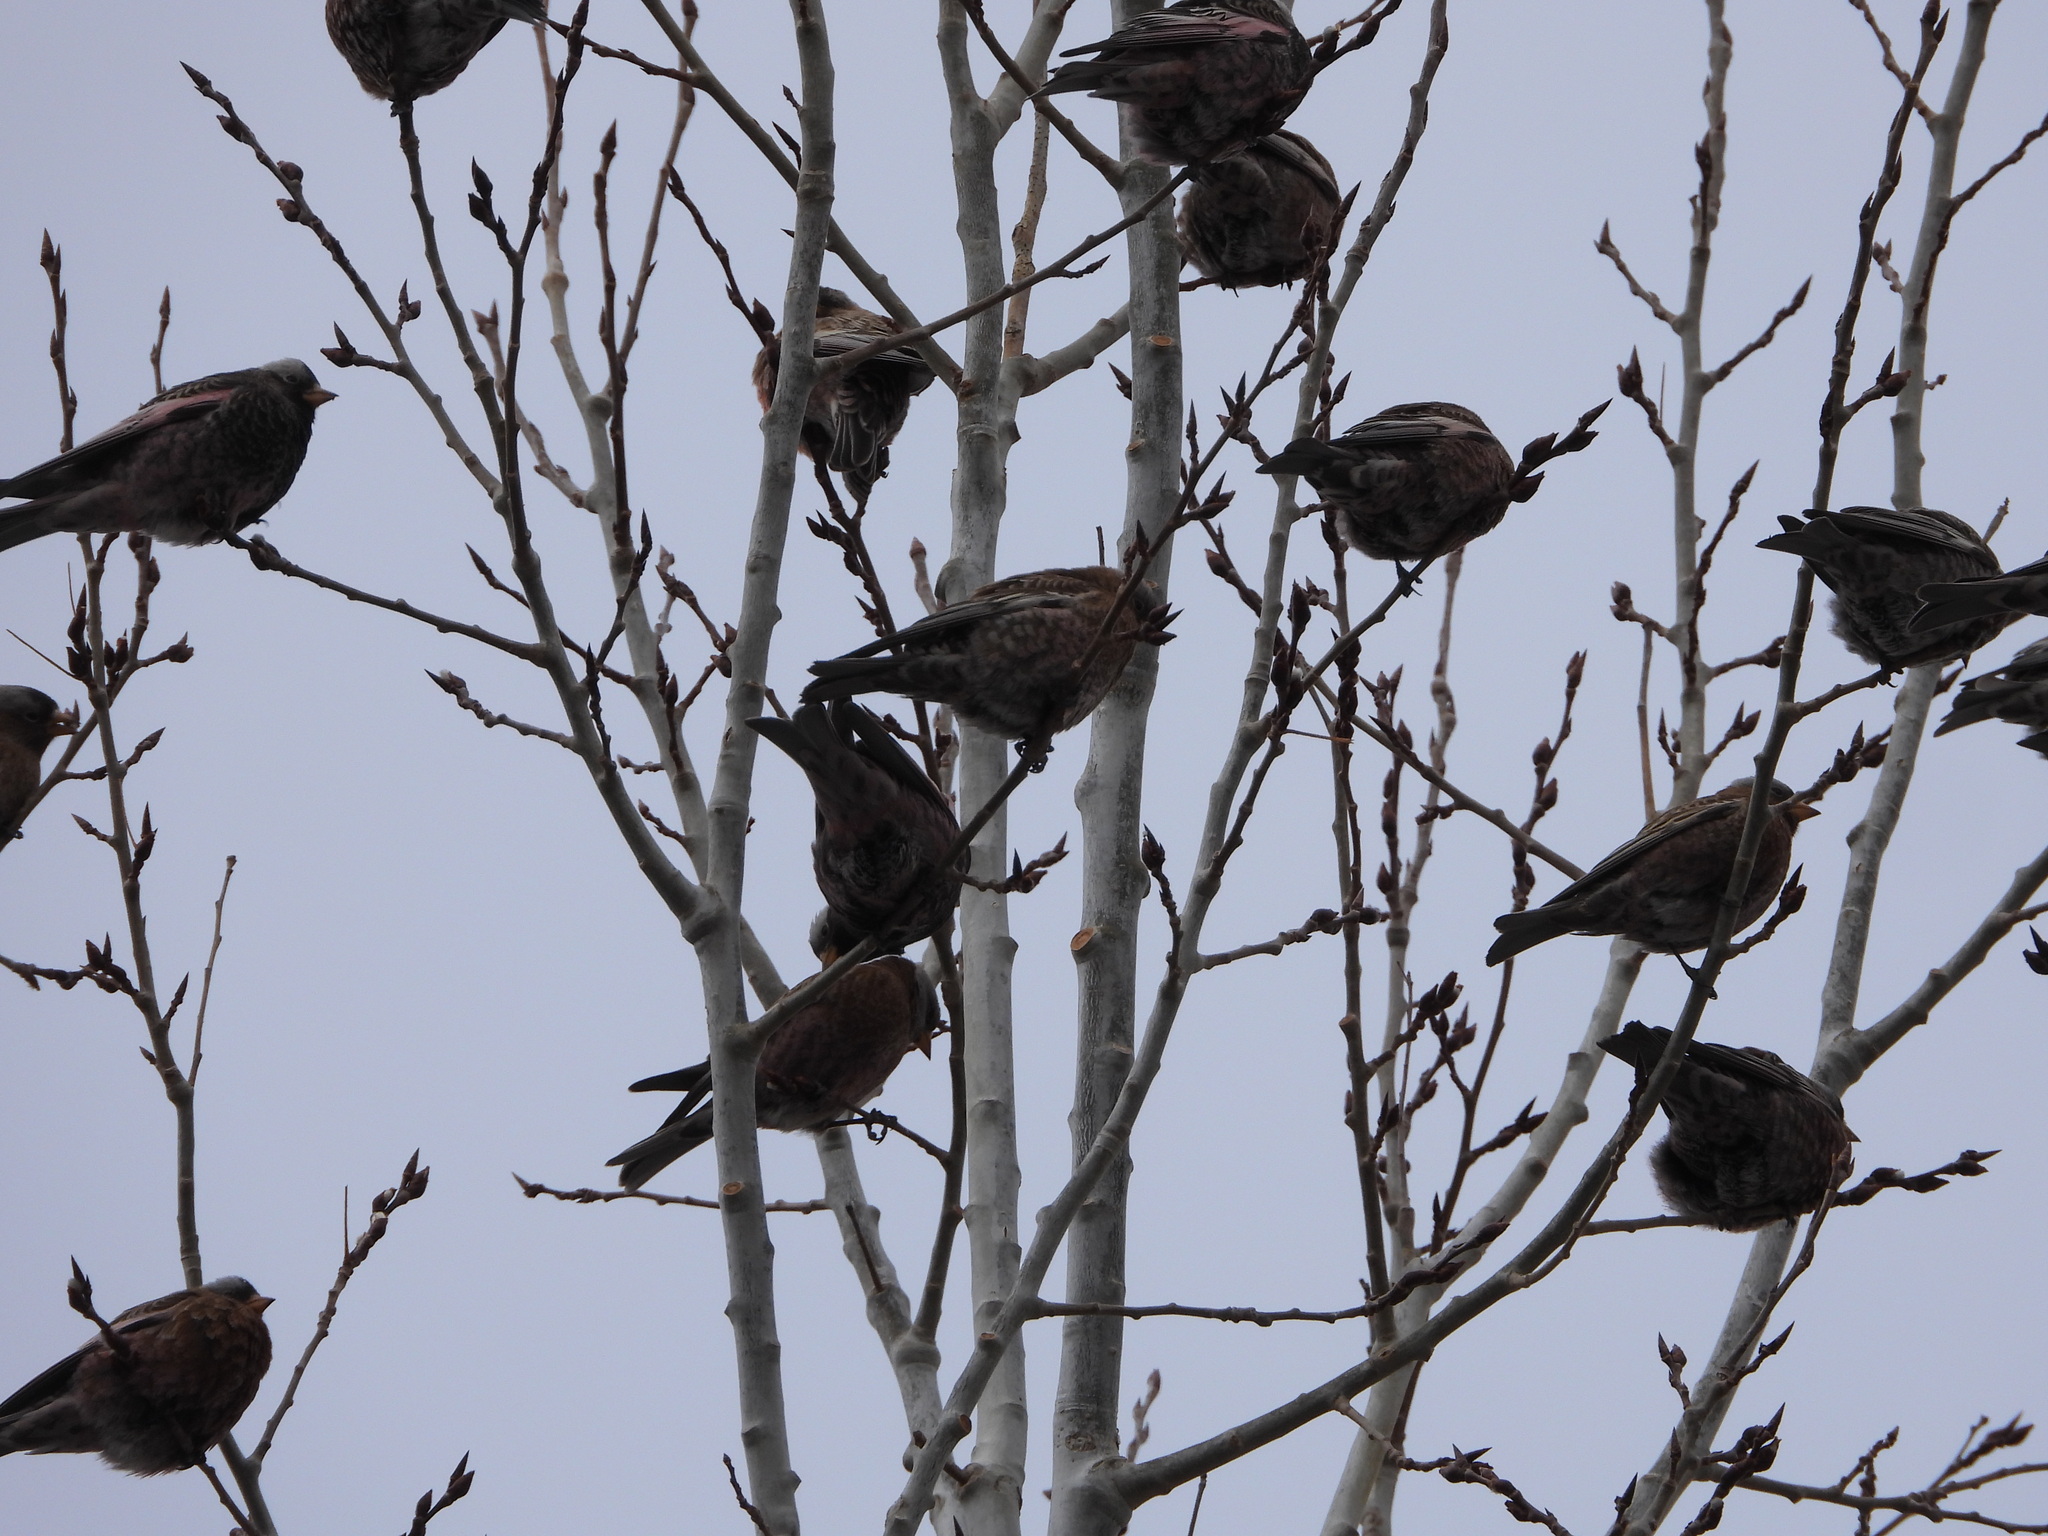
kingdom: Animalia
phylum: Chordata
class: Aves
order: Passeriformes
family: Fringillidae
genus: Leucosticte
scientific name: Leucosticte atrata
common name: Black rosy-finch
